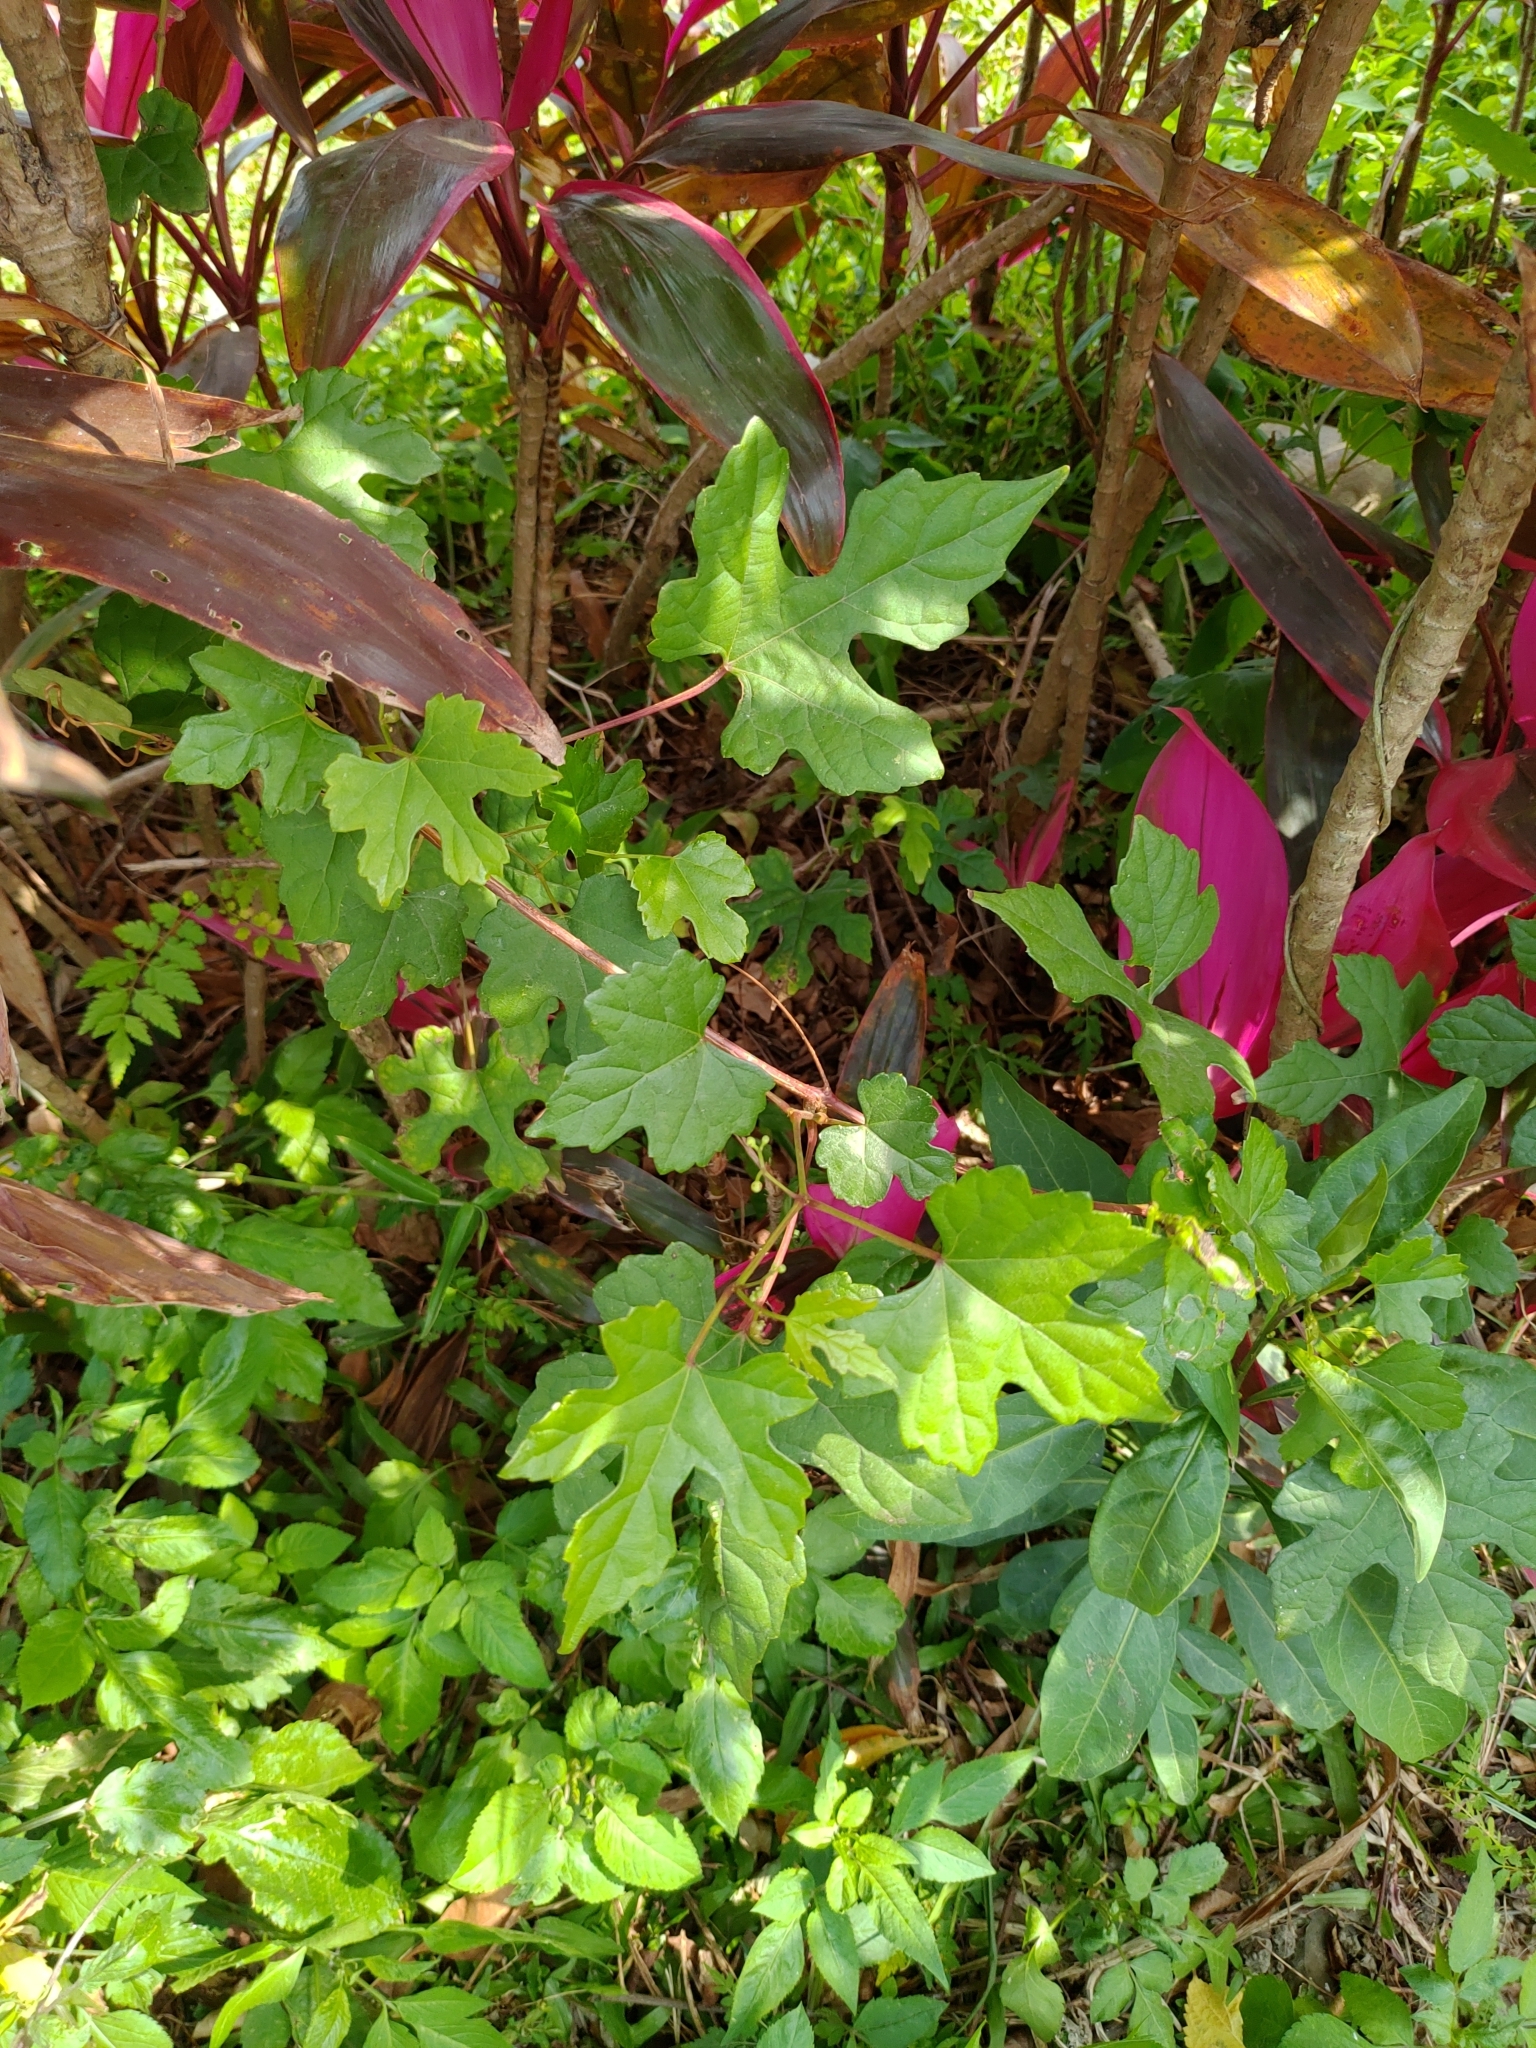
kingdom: Plantae
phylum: Tracheophyta
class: Magnoliopsida
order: Vitales
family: Vitaceae
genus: Ampelopsis
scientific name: Ampelopsis glandulosa
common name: Amur peppervine
